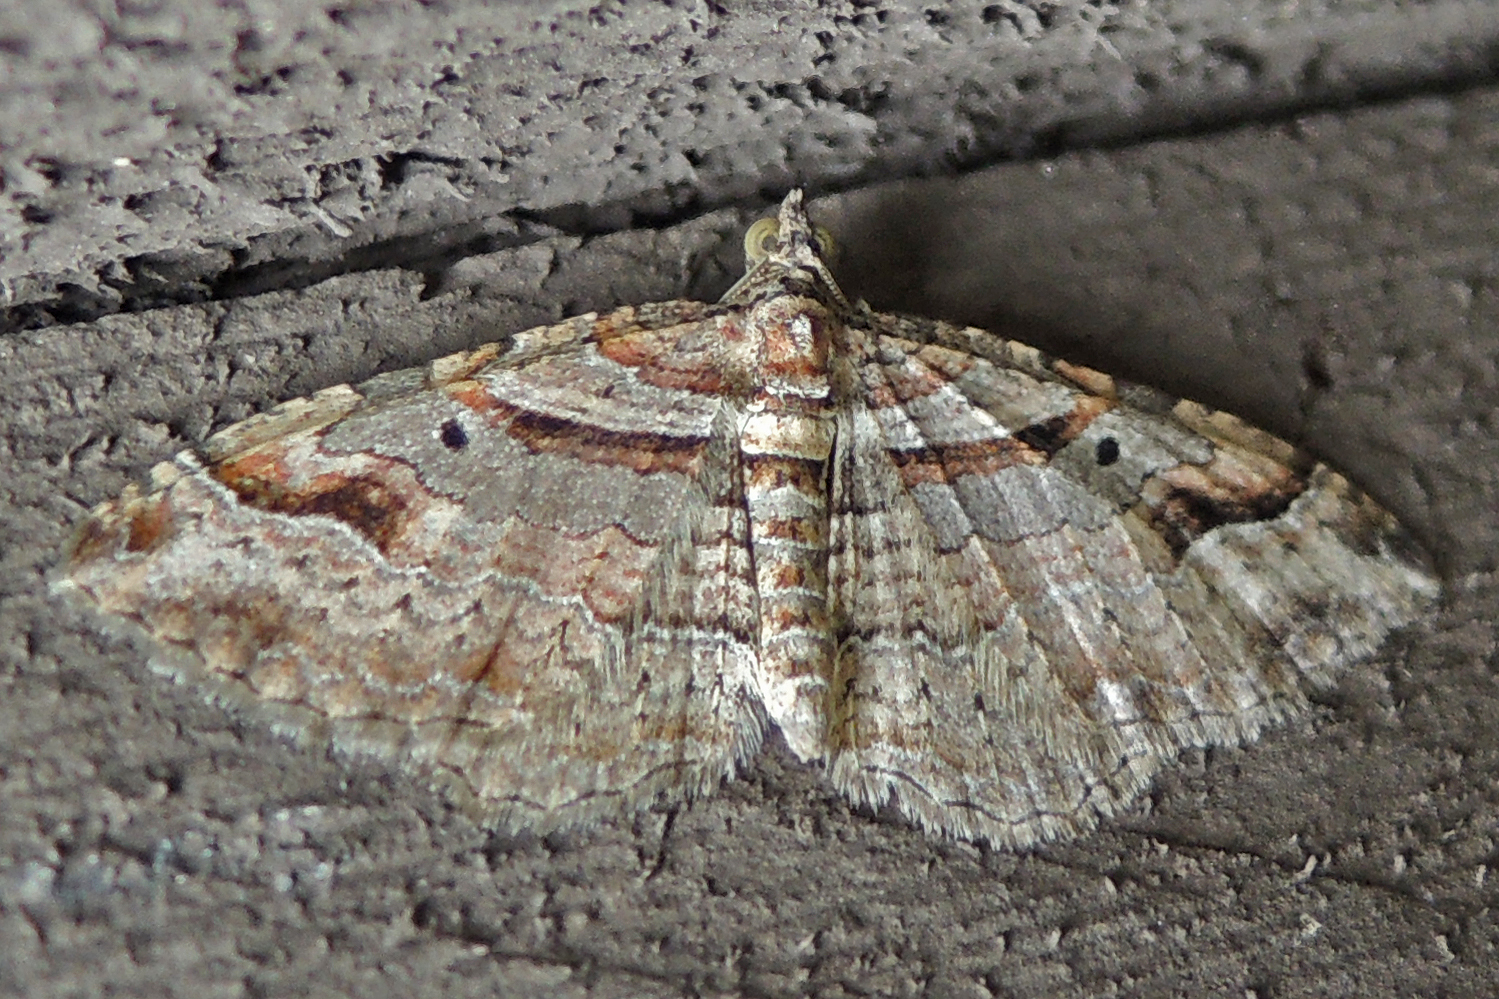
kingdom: Animalia
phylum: Arthropoda
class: Insecta
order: Lepidoptera
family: Geometridae
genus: Costaconvexa
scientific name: Costaconvexa centrostrigaria
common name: Bent-line carpet
